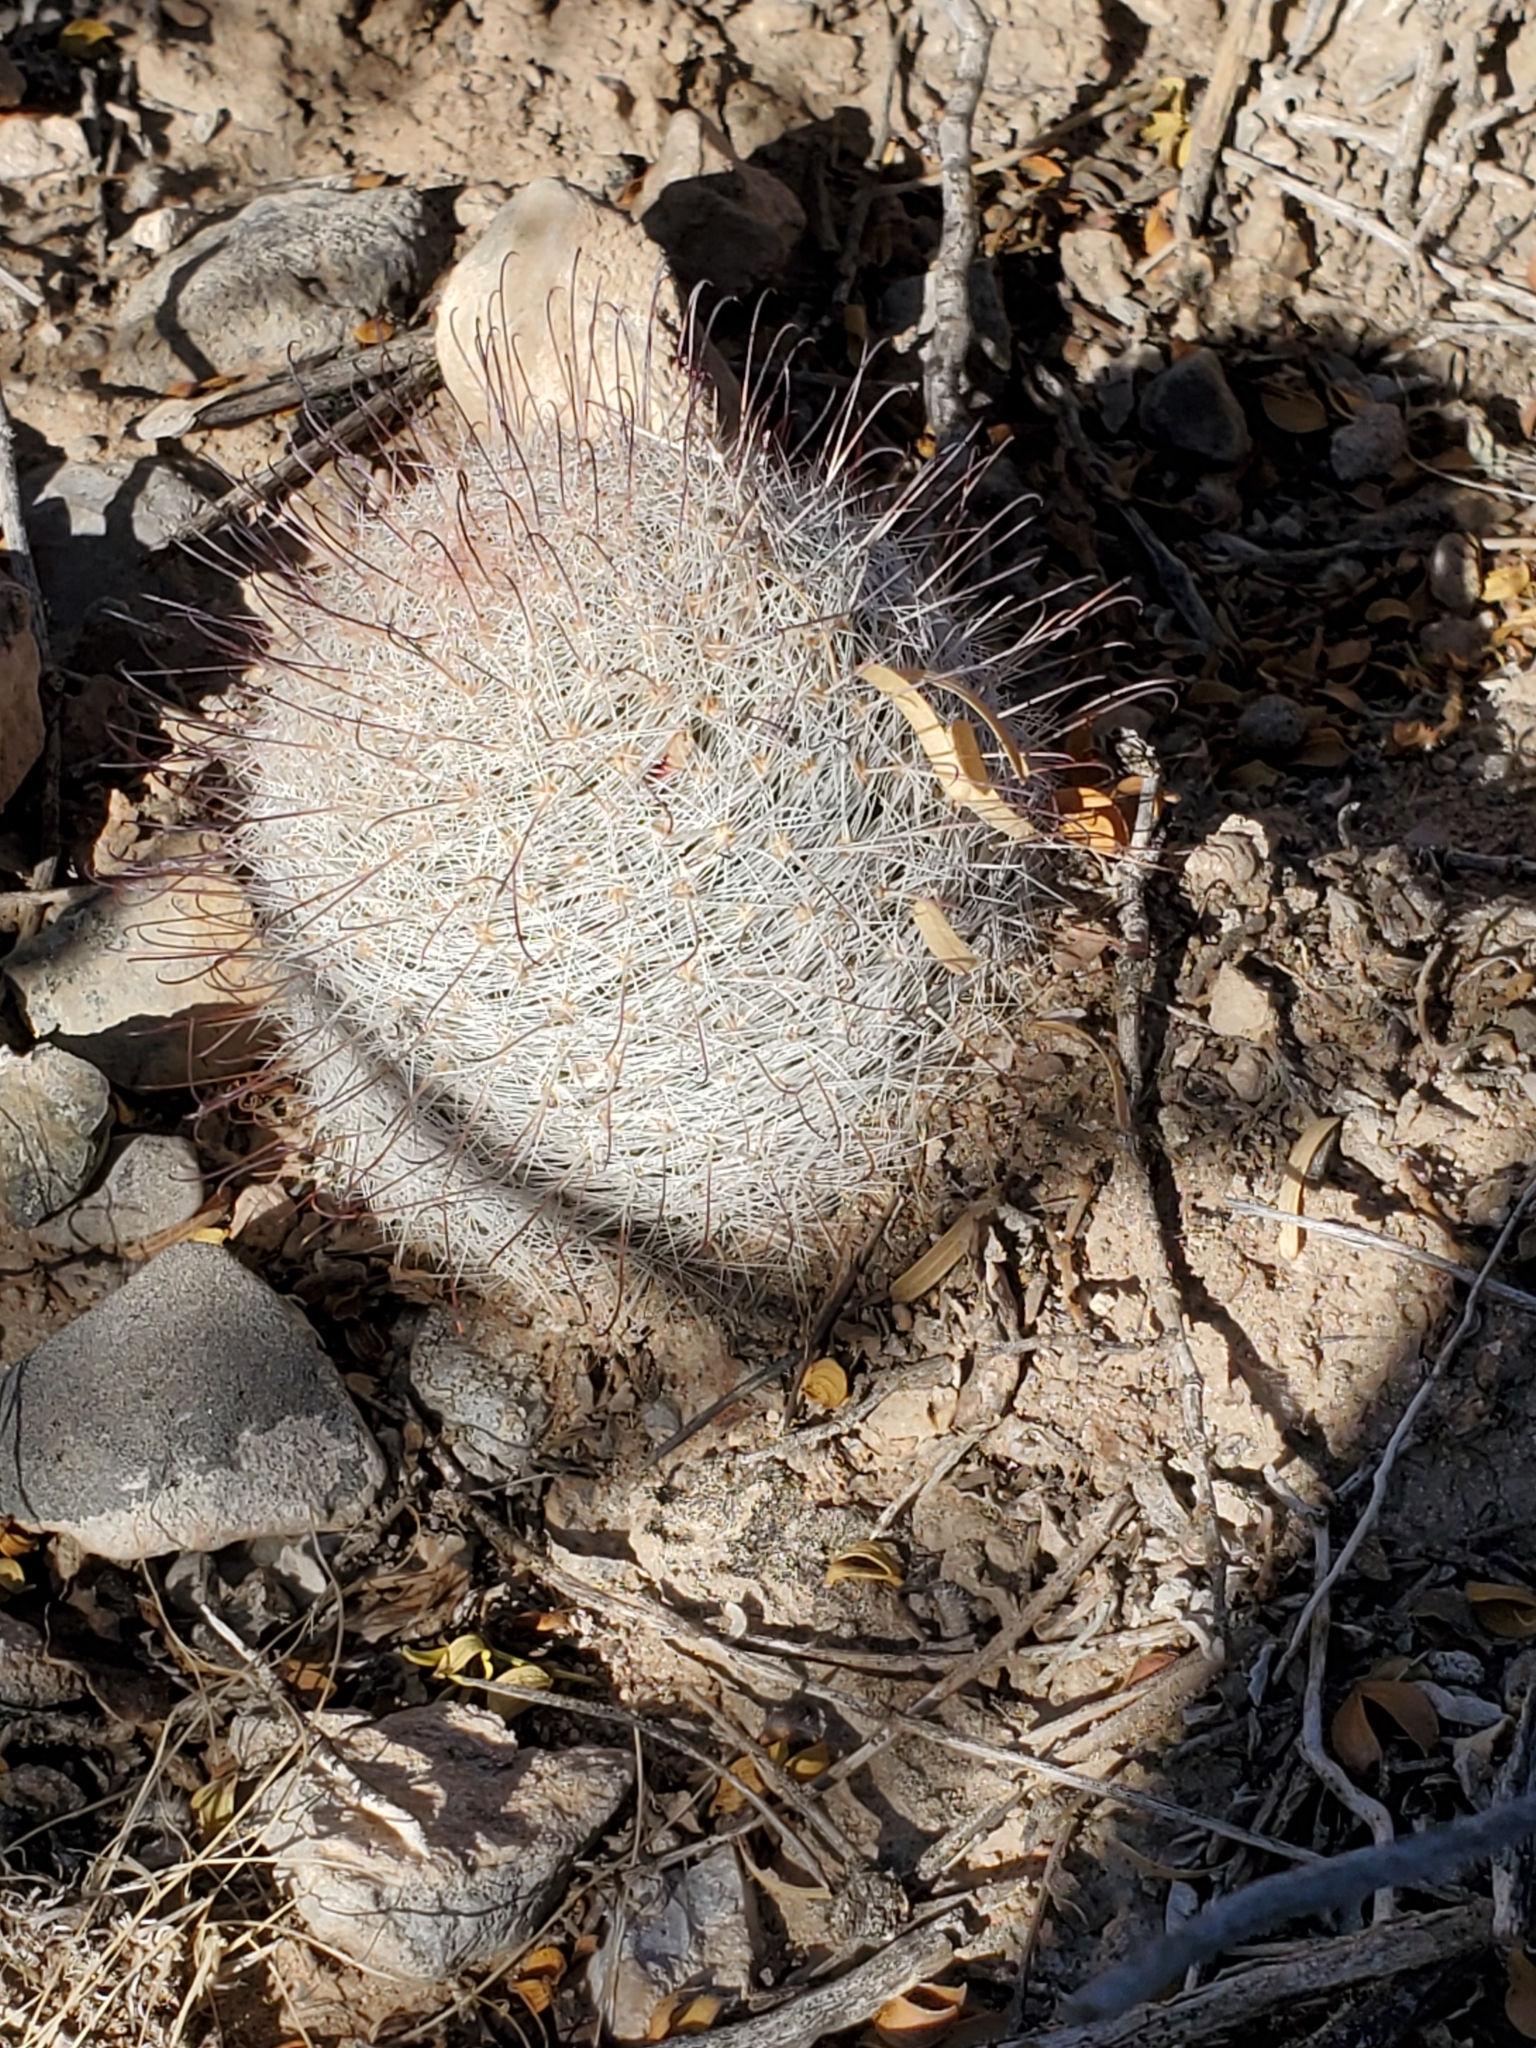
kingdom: Plantae
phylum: Tracheophyta
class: Magnoliopsida
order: Caryophyllales
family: Cactaceae
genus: Cochemiea
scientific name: Cochemiea grahamii
